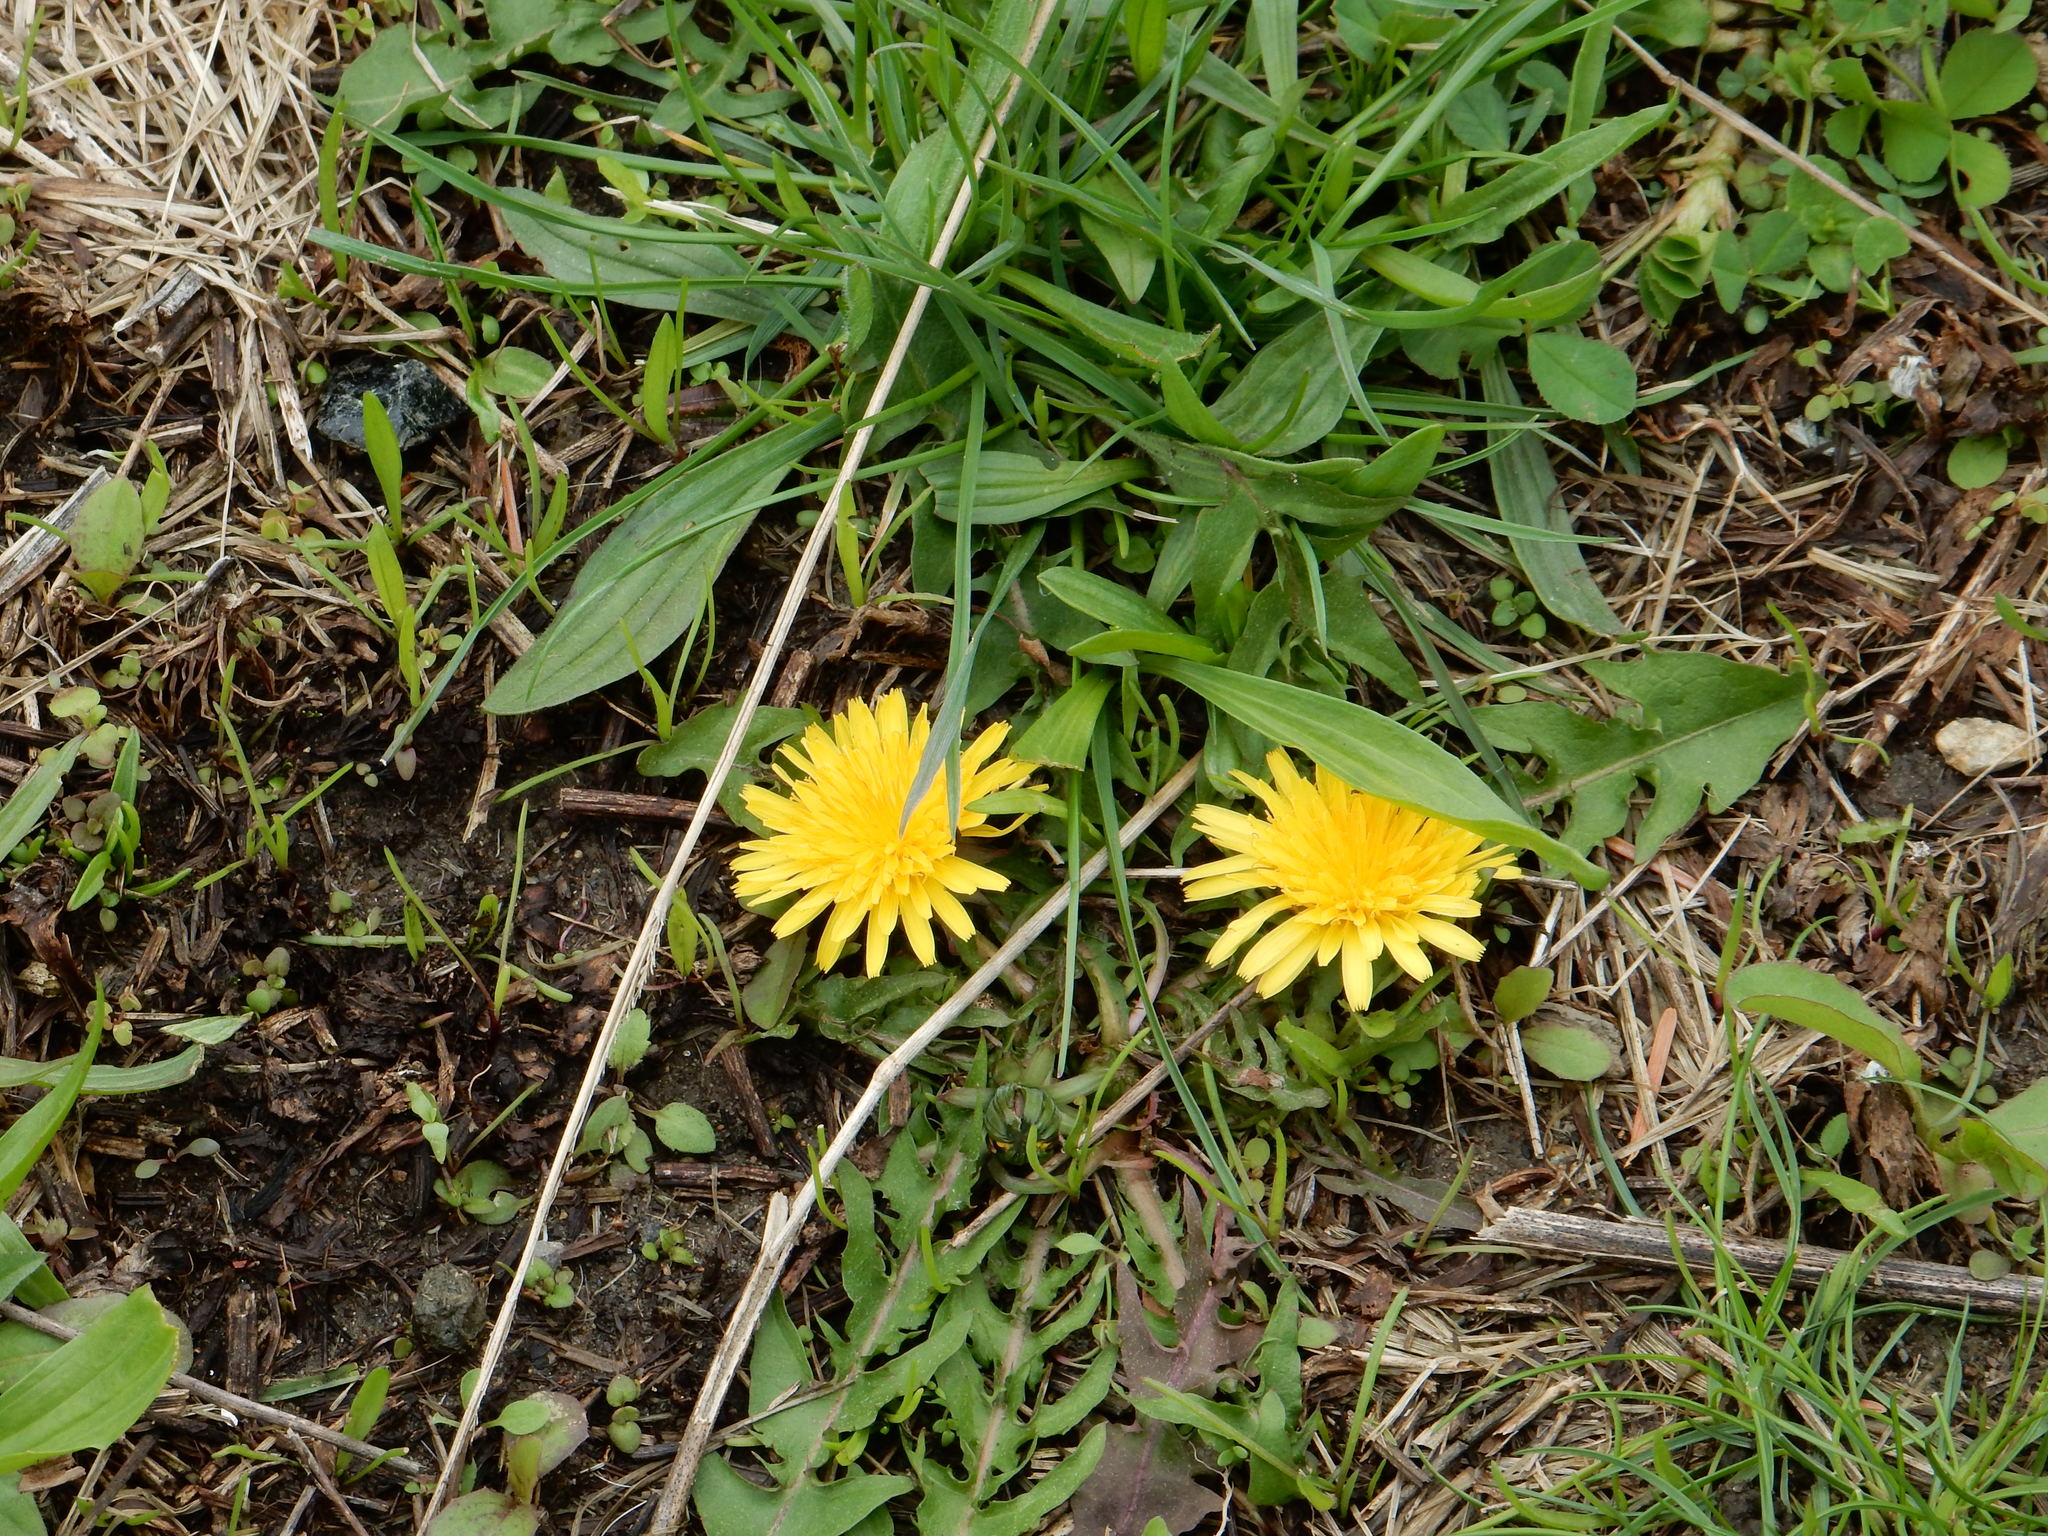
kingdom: Plantae
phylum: Tracheophyta
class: Magnoliopsida
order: Asterales
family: Asteraceae
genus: Taraxacum
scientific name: Taraxacum
